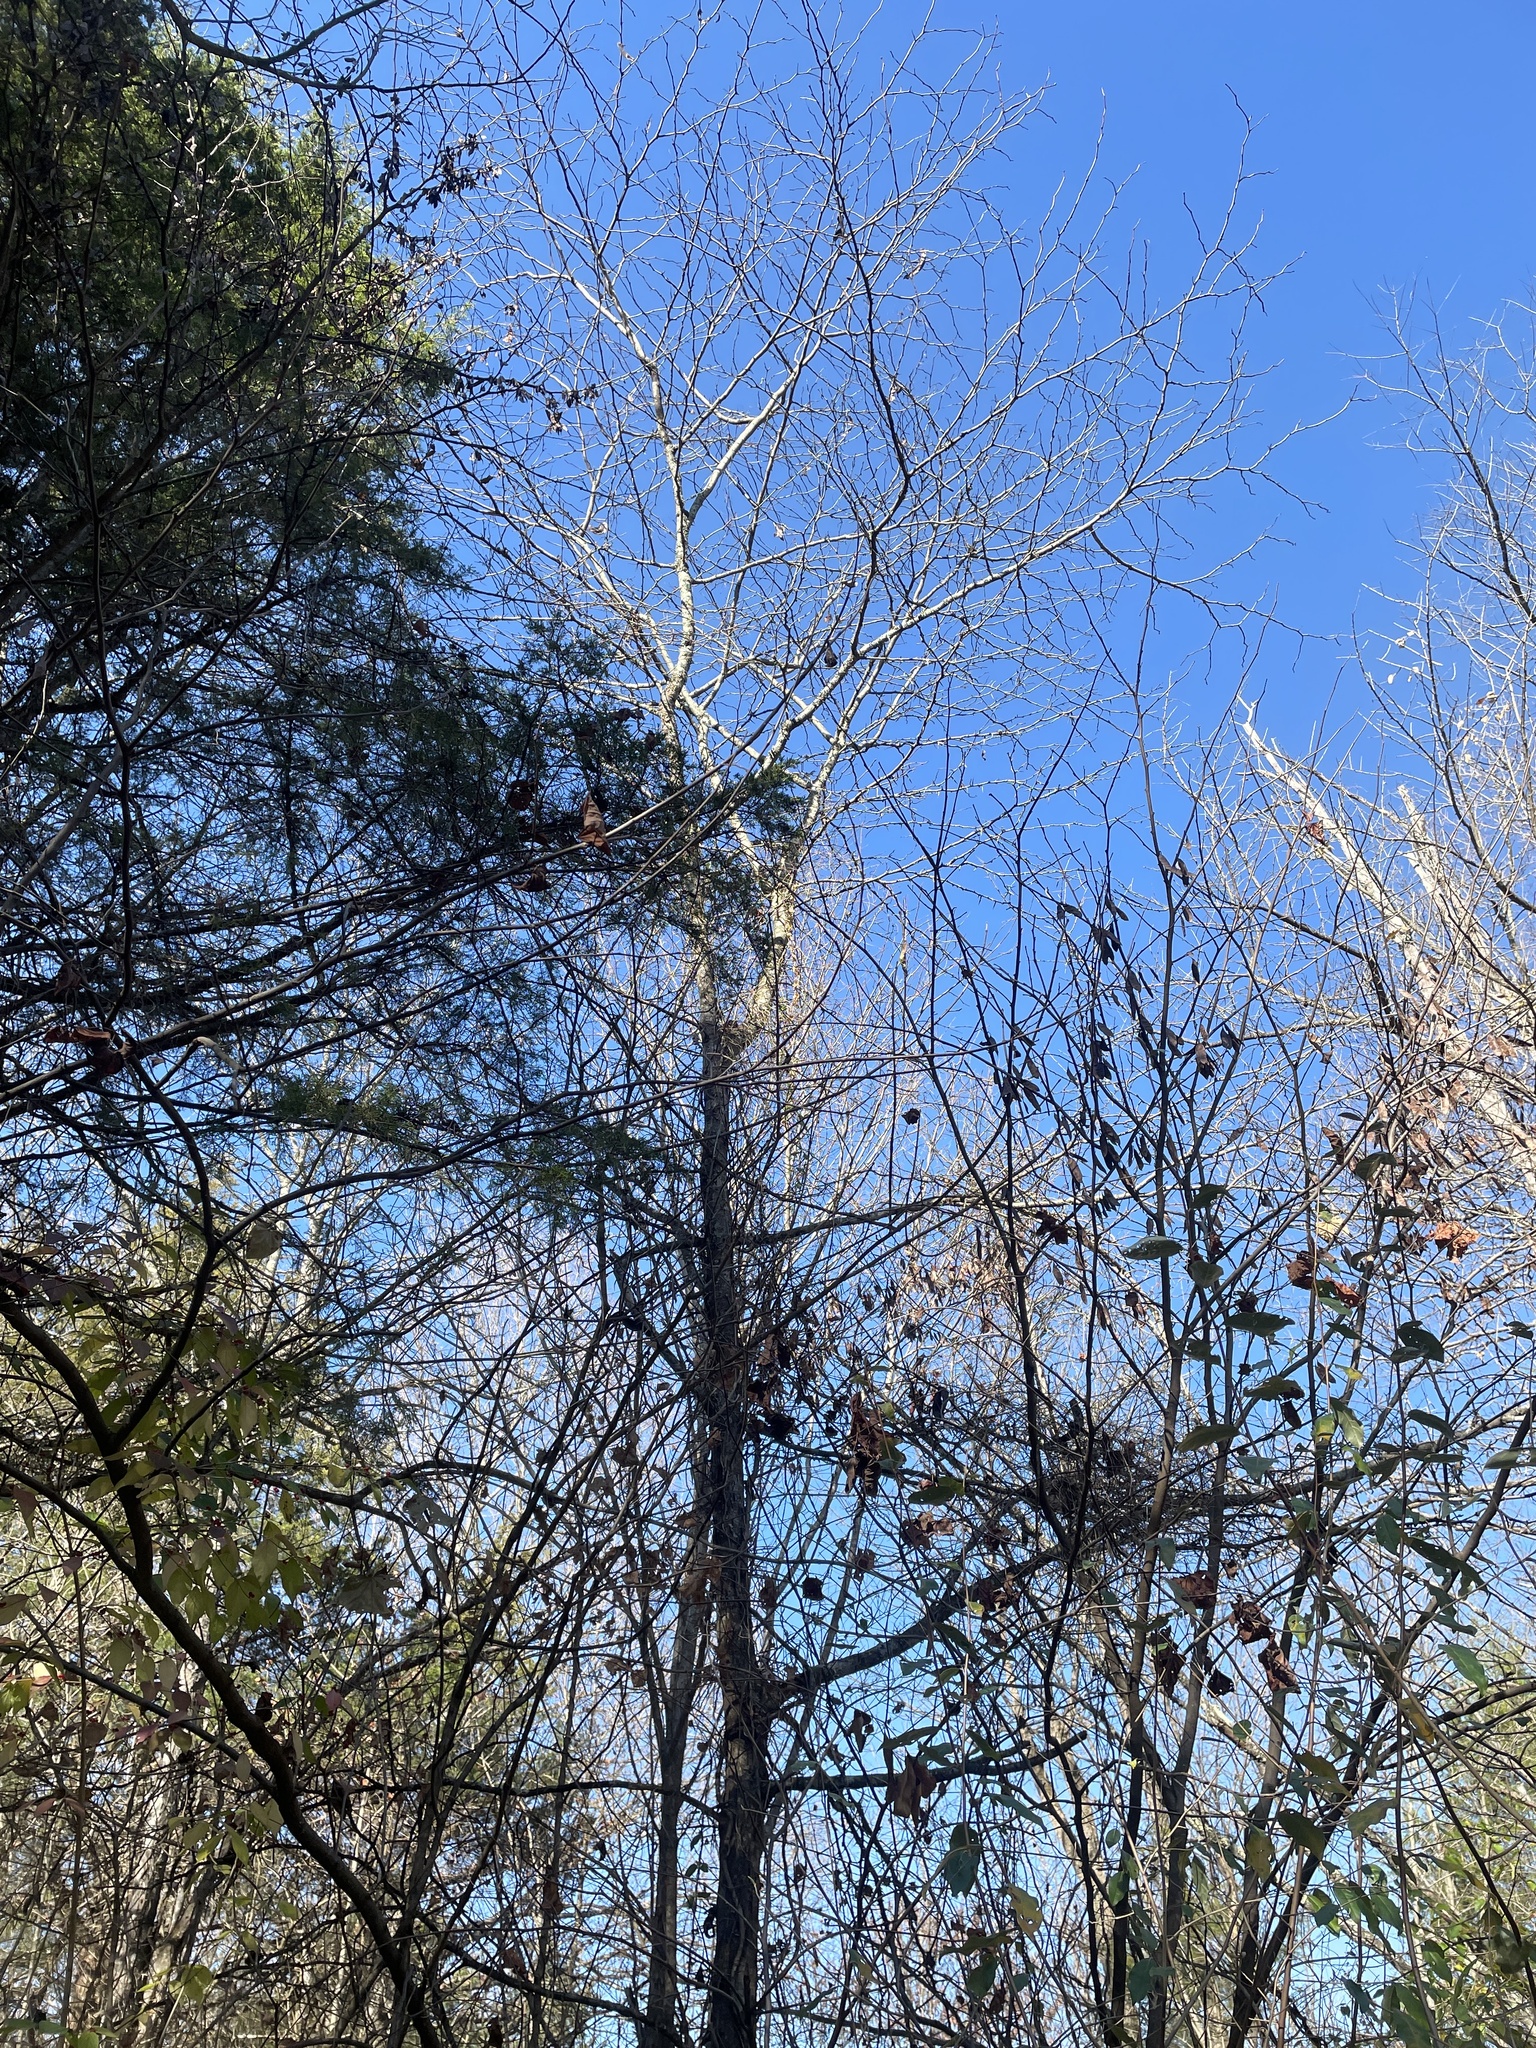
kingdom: Plantae
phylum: Tracheophyta
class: Magnoliopsida
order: Fabales
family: Fabaceae
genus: Gleditsia
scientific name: Gleditsia triacanthos
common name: Common honeylocust
